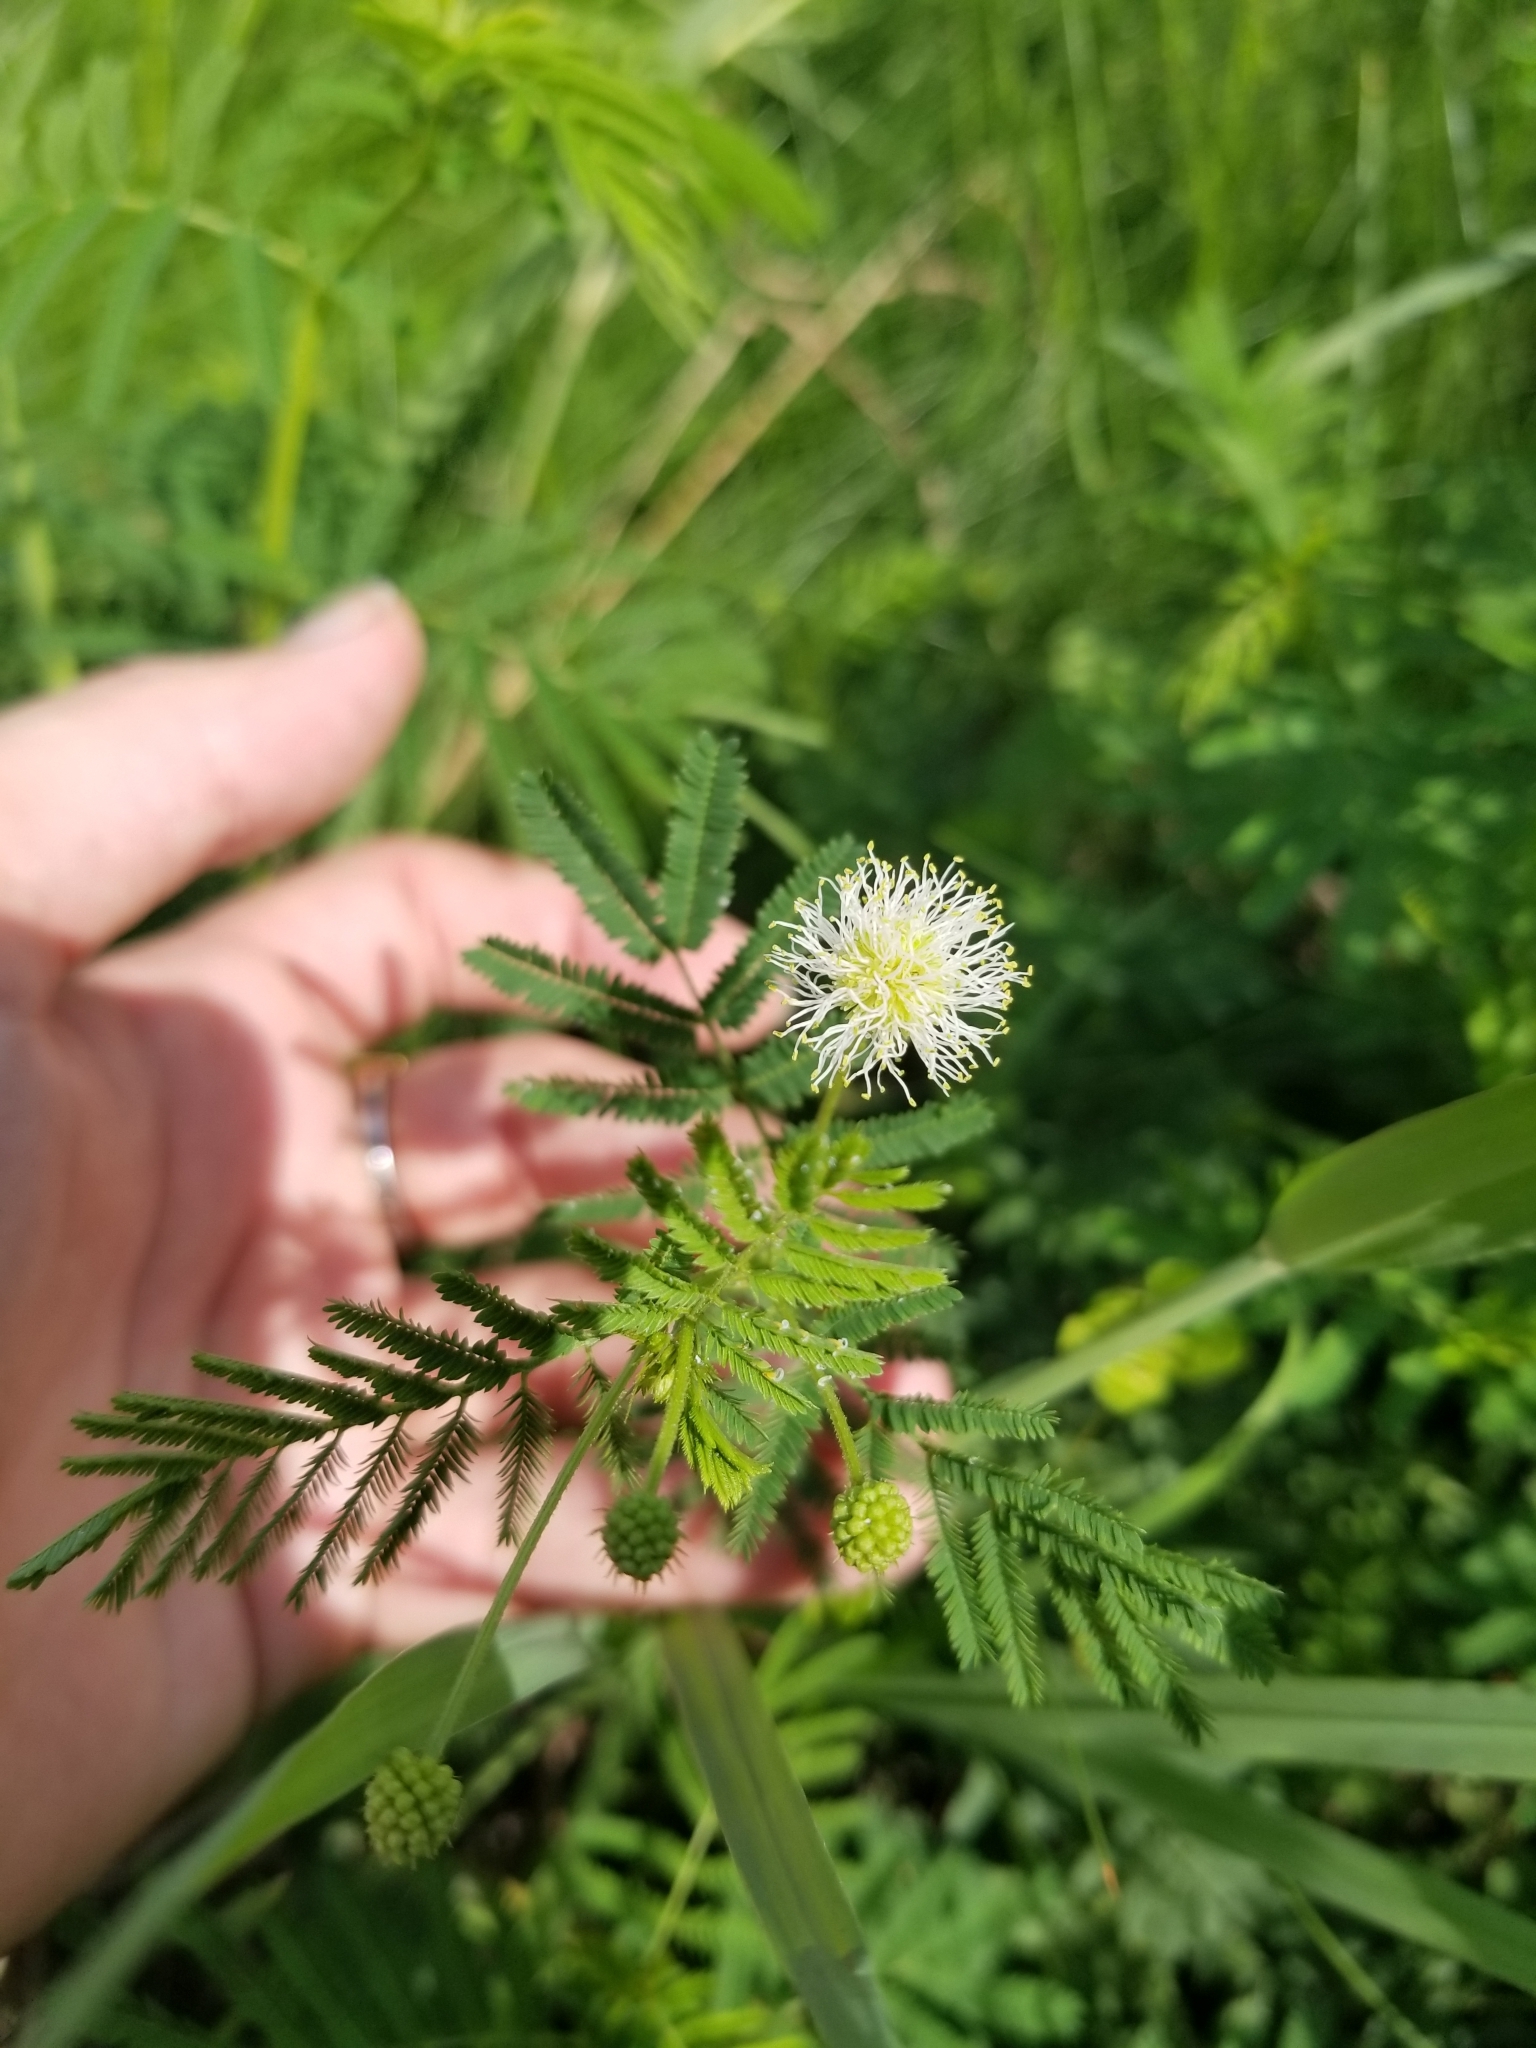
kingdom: Plantae
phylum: Tracheophyta
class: Magnoliopsida
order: Fabales
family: Fabaceae
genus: Desmanthus
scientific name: Desmanthus illinoensis
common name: Illinois bundle-flower
